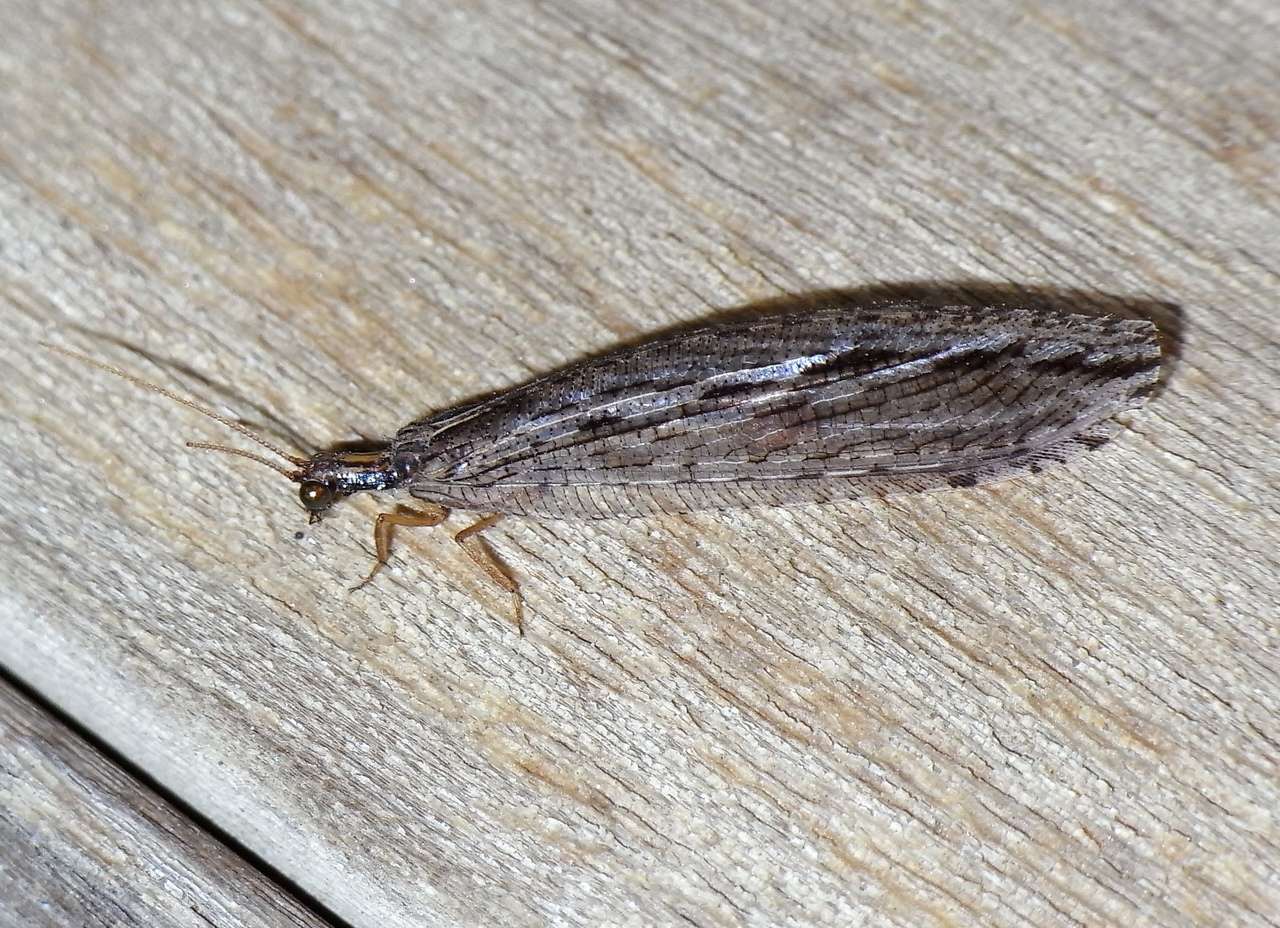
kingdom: Animalia
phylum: Arthropoda
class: Insecta
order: Neuroptera
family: Osmylidae
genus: Stenosmylus
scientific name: Stenosmylus stenopterus
